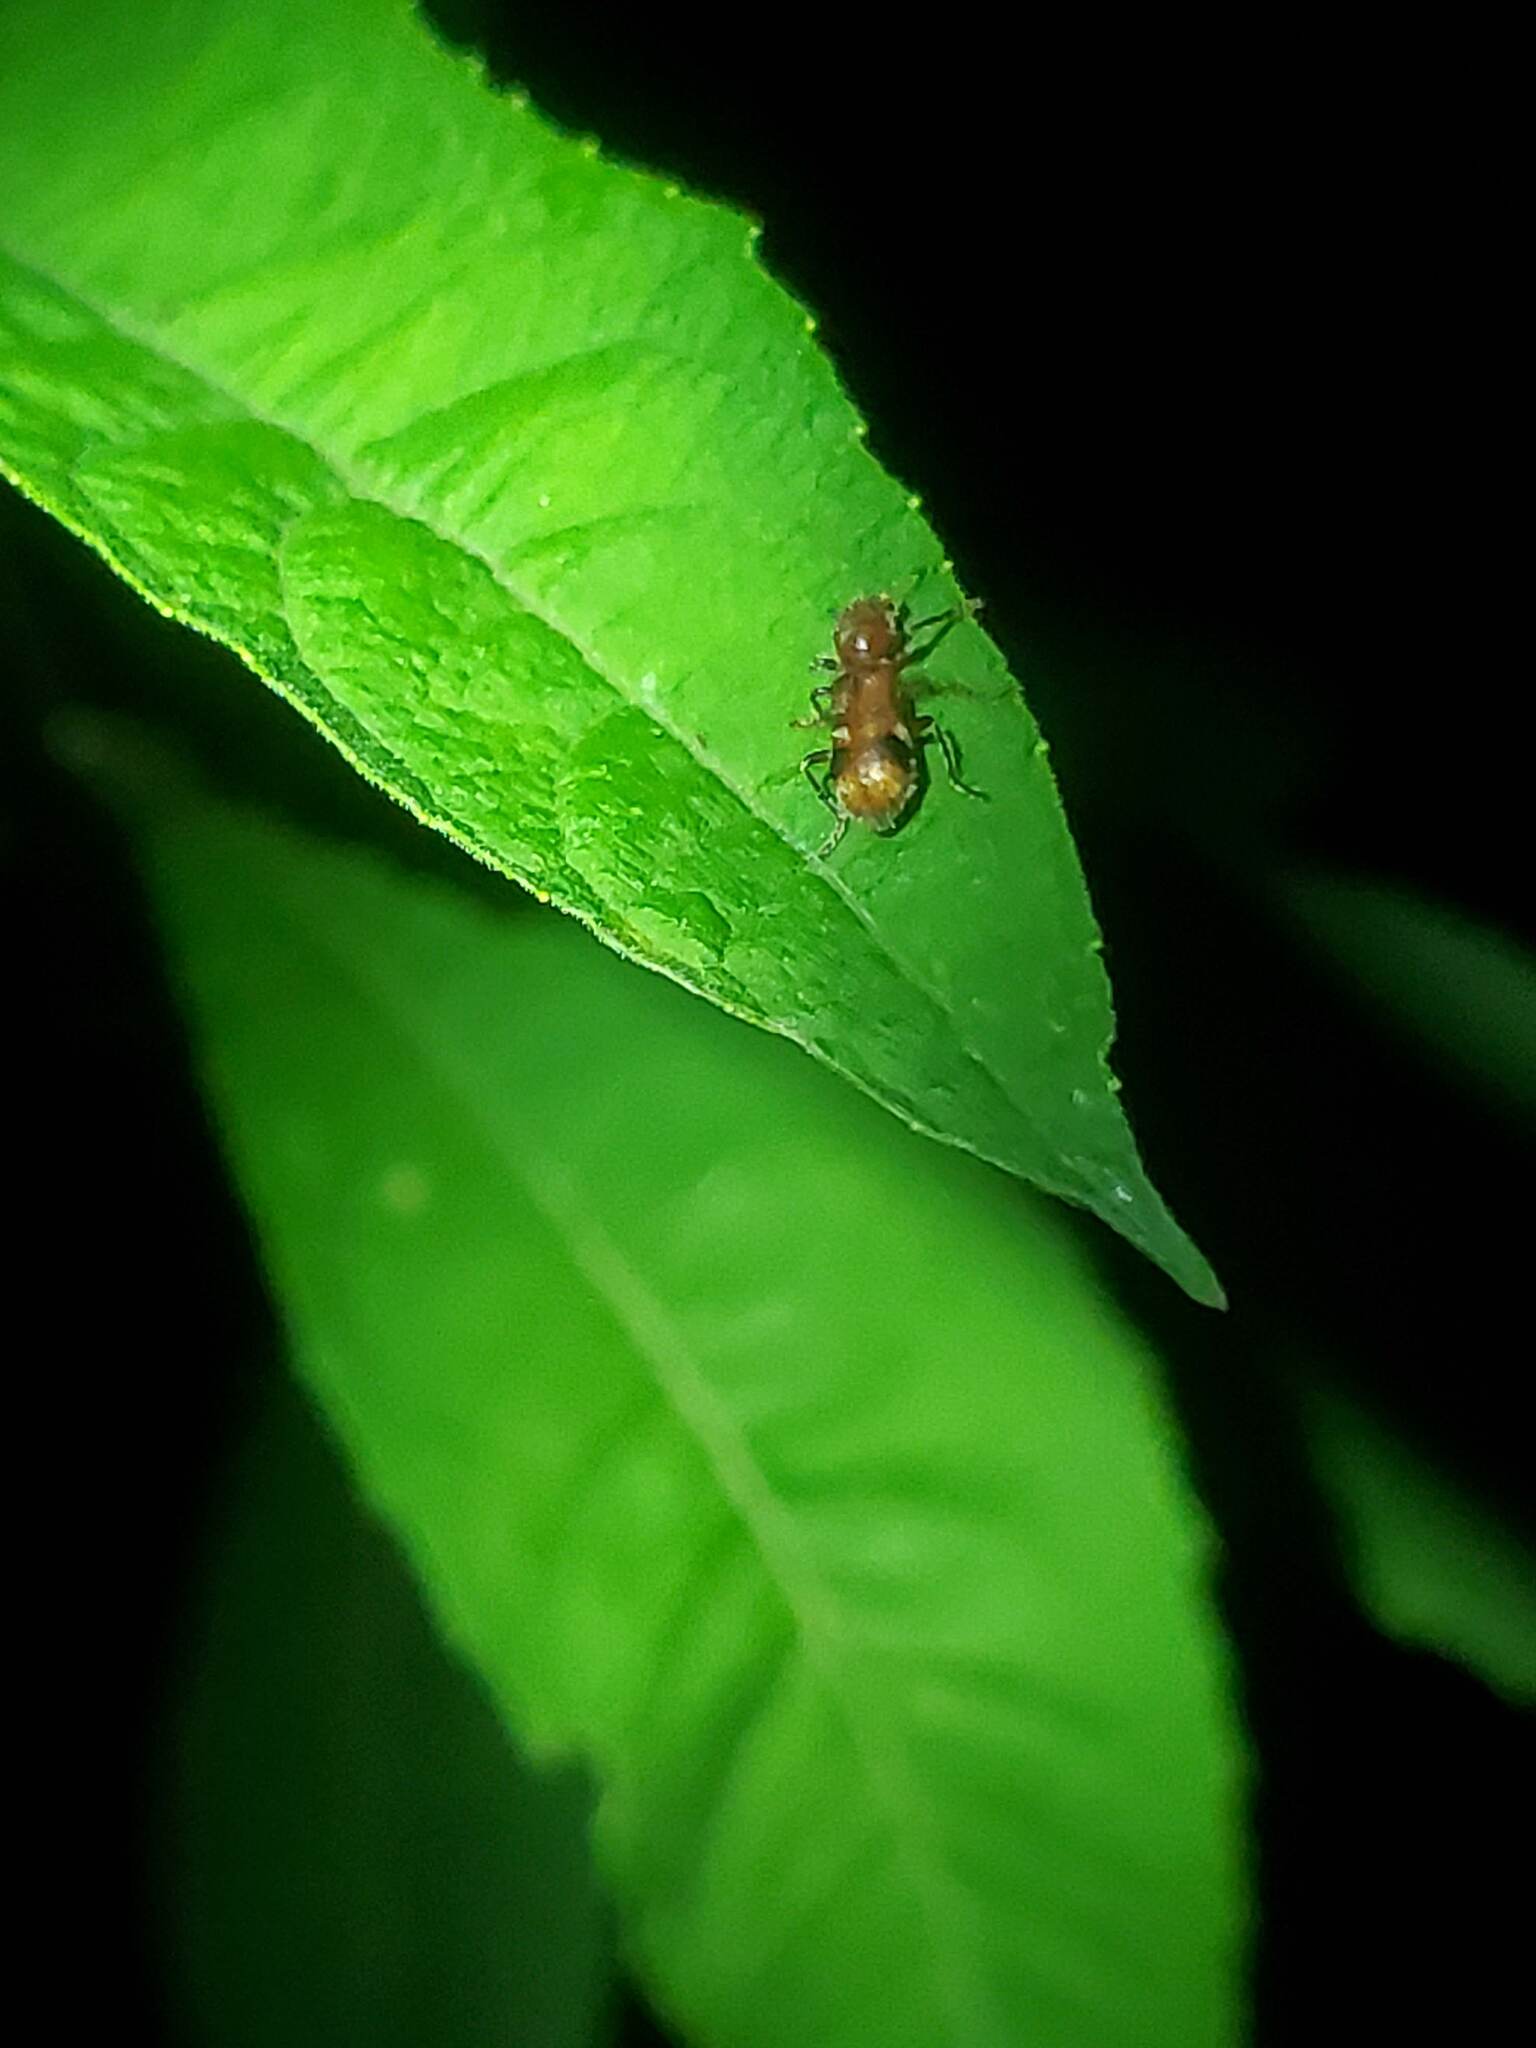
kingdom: Animalia
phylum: Arthropoda
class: Insecta
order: Coleoptera
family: Cleridae
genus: Enoclerus
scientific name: Enoclerus rosmarus
